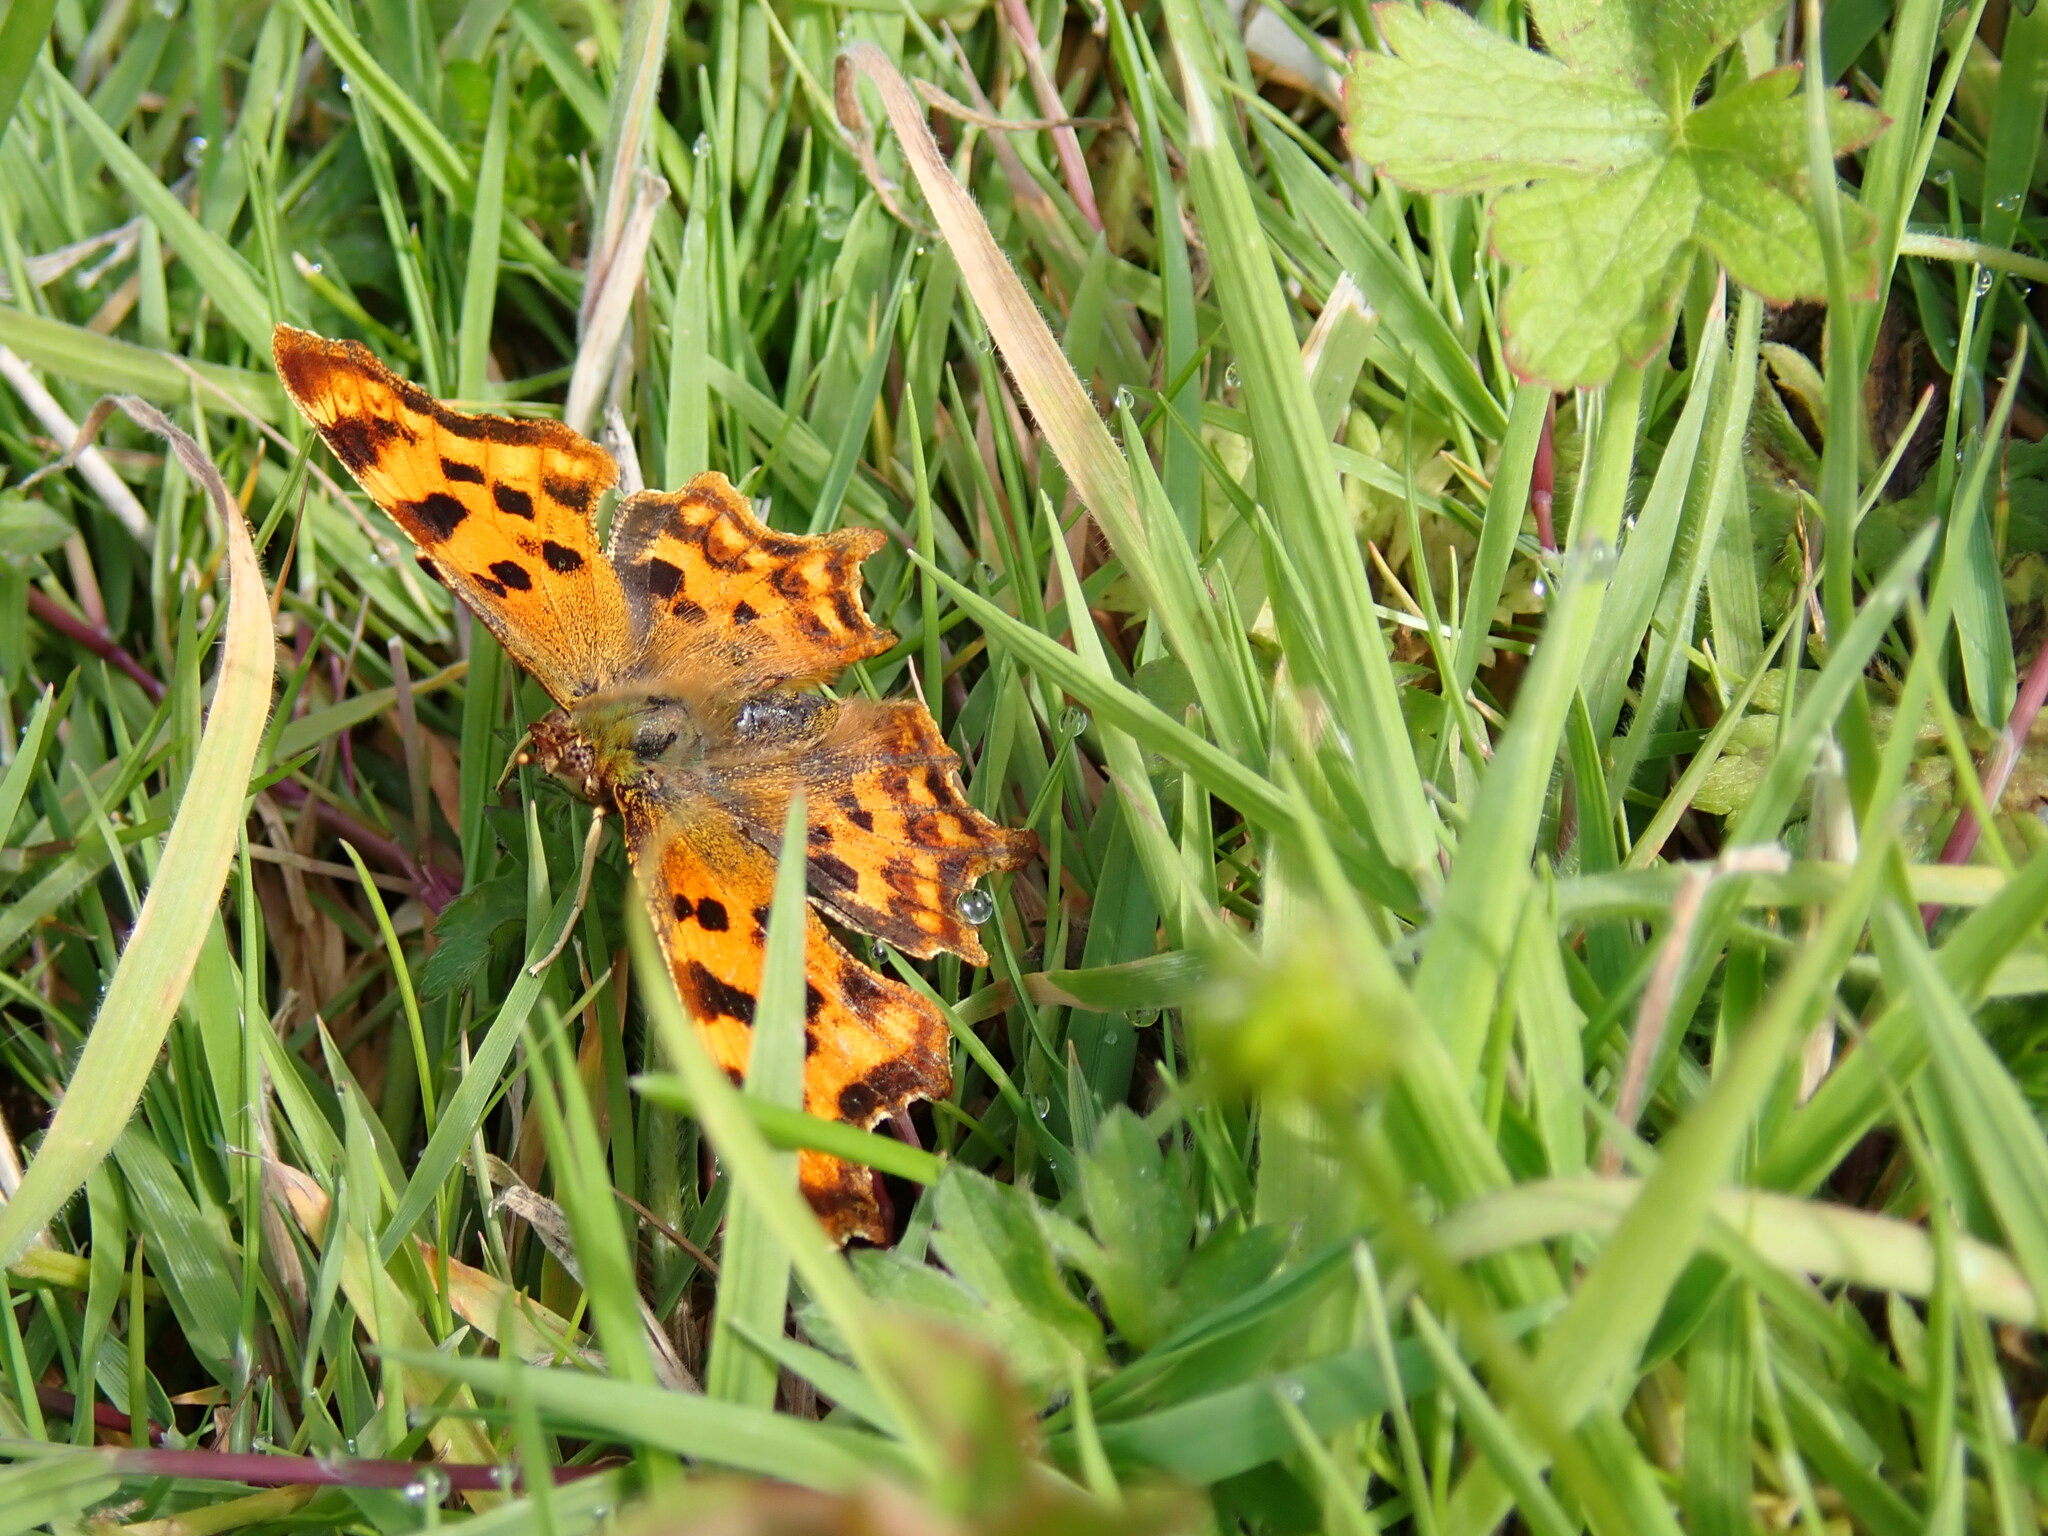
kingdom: Animalia
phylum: Arthropoda
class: Insecta
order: Lepidoptera
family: Nymphalidae
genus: Polygonia
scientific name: Polygonia c-album
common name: Comma
